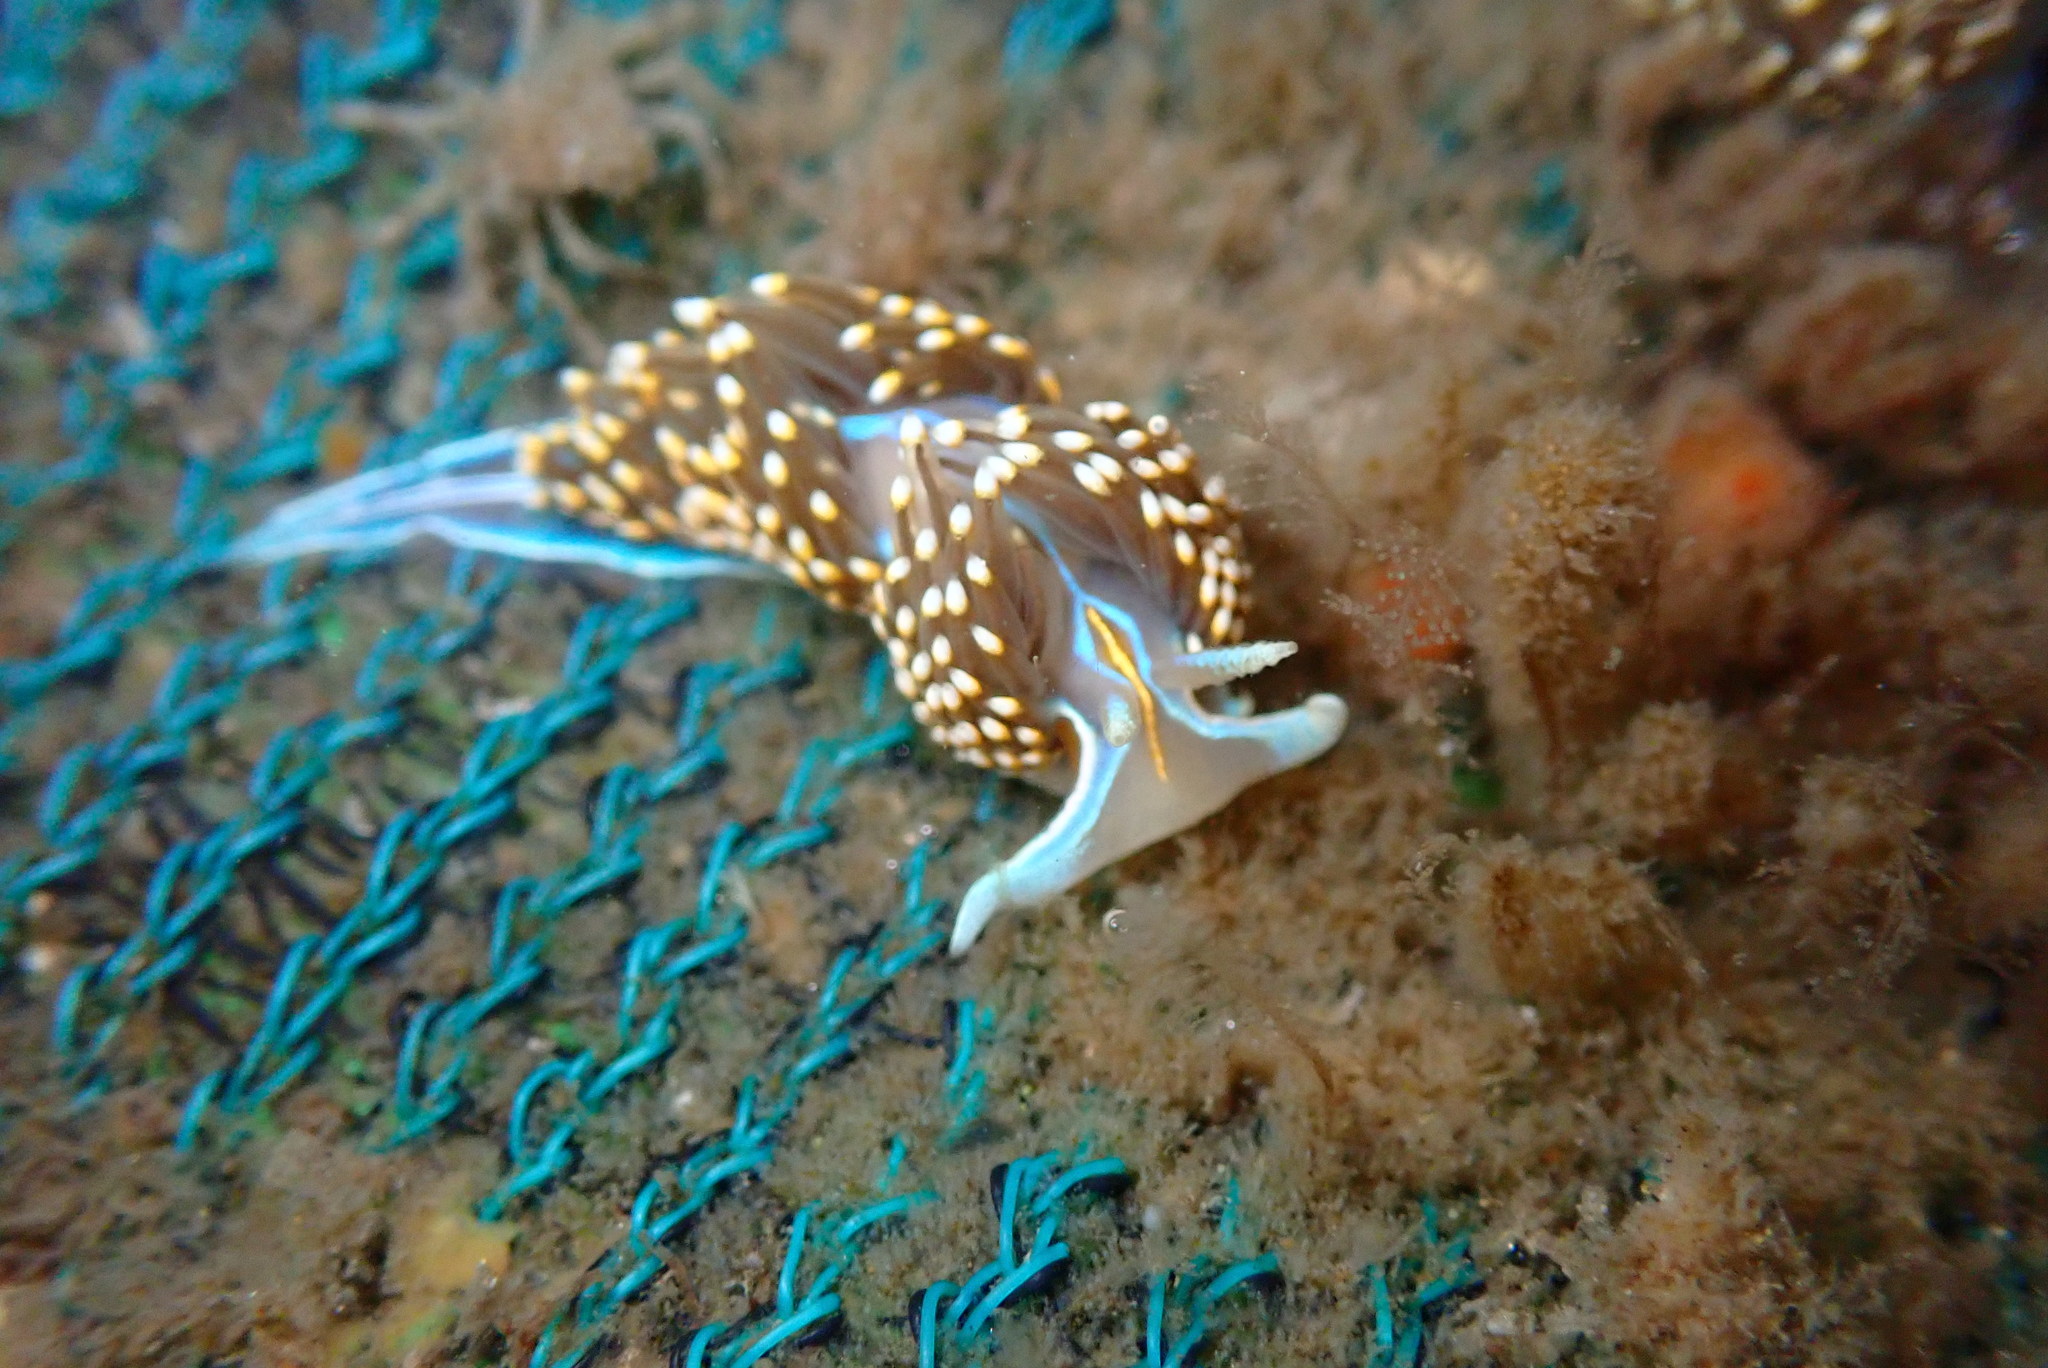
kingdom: Animalia
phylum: Mollusca
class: Gastropoda
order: Nudibranchia
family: Myrrhinidae
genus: Hermissenda
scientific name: Hermissenda opalescens
